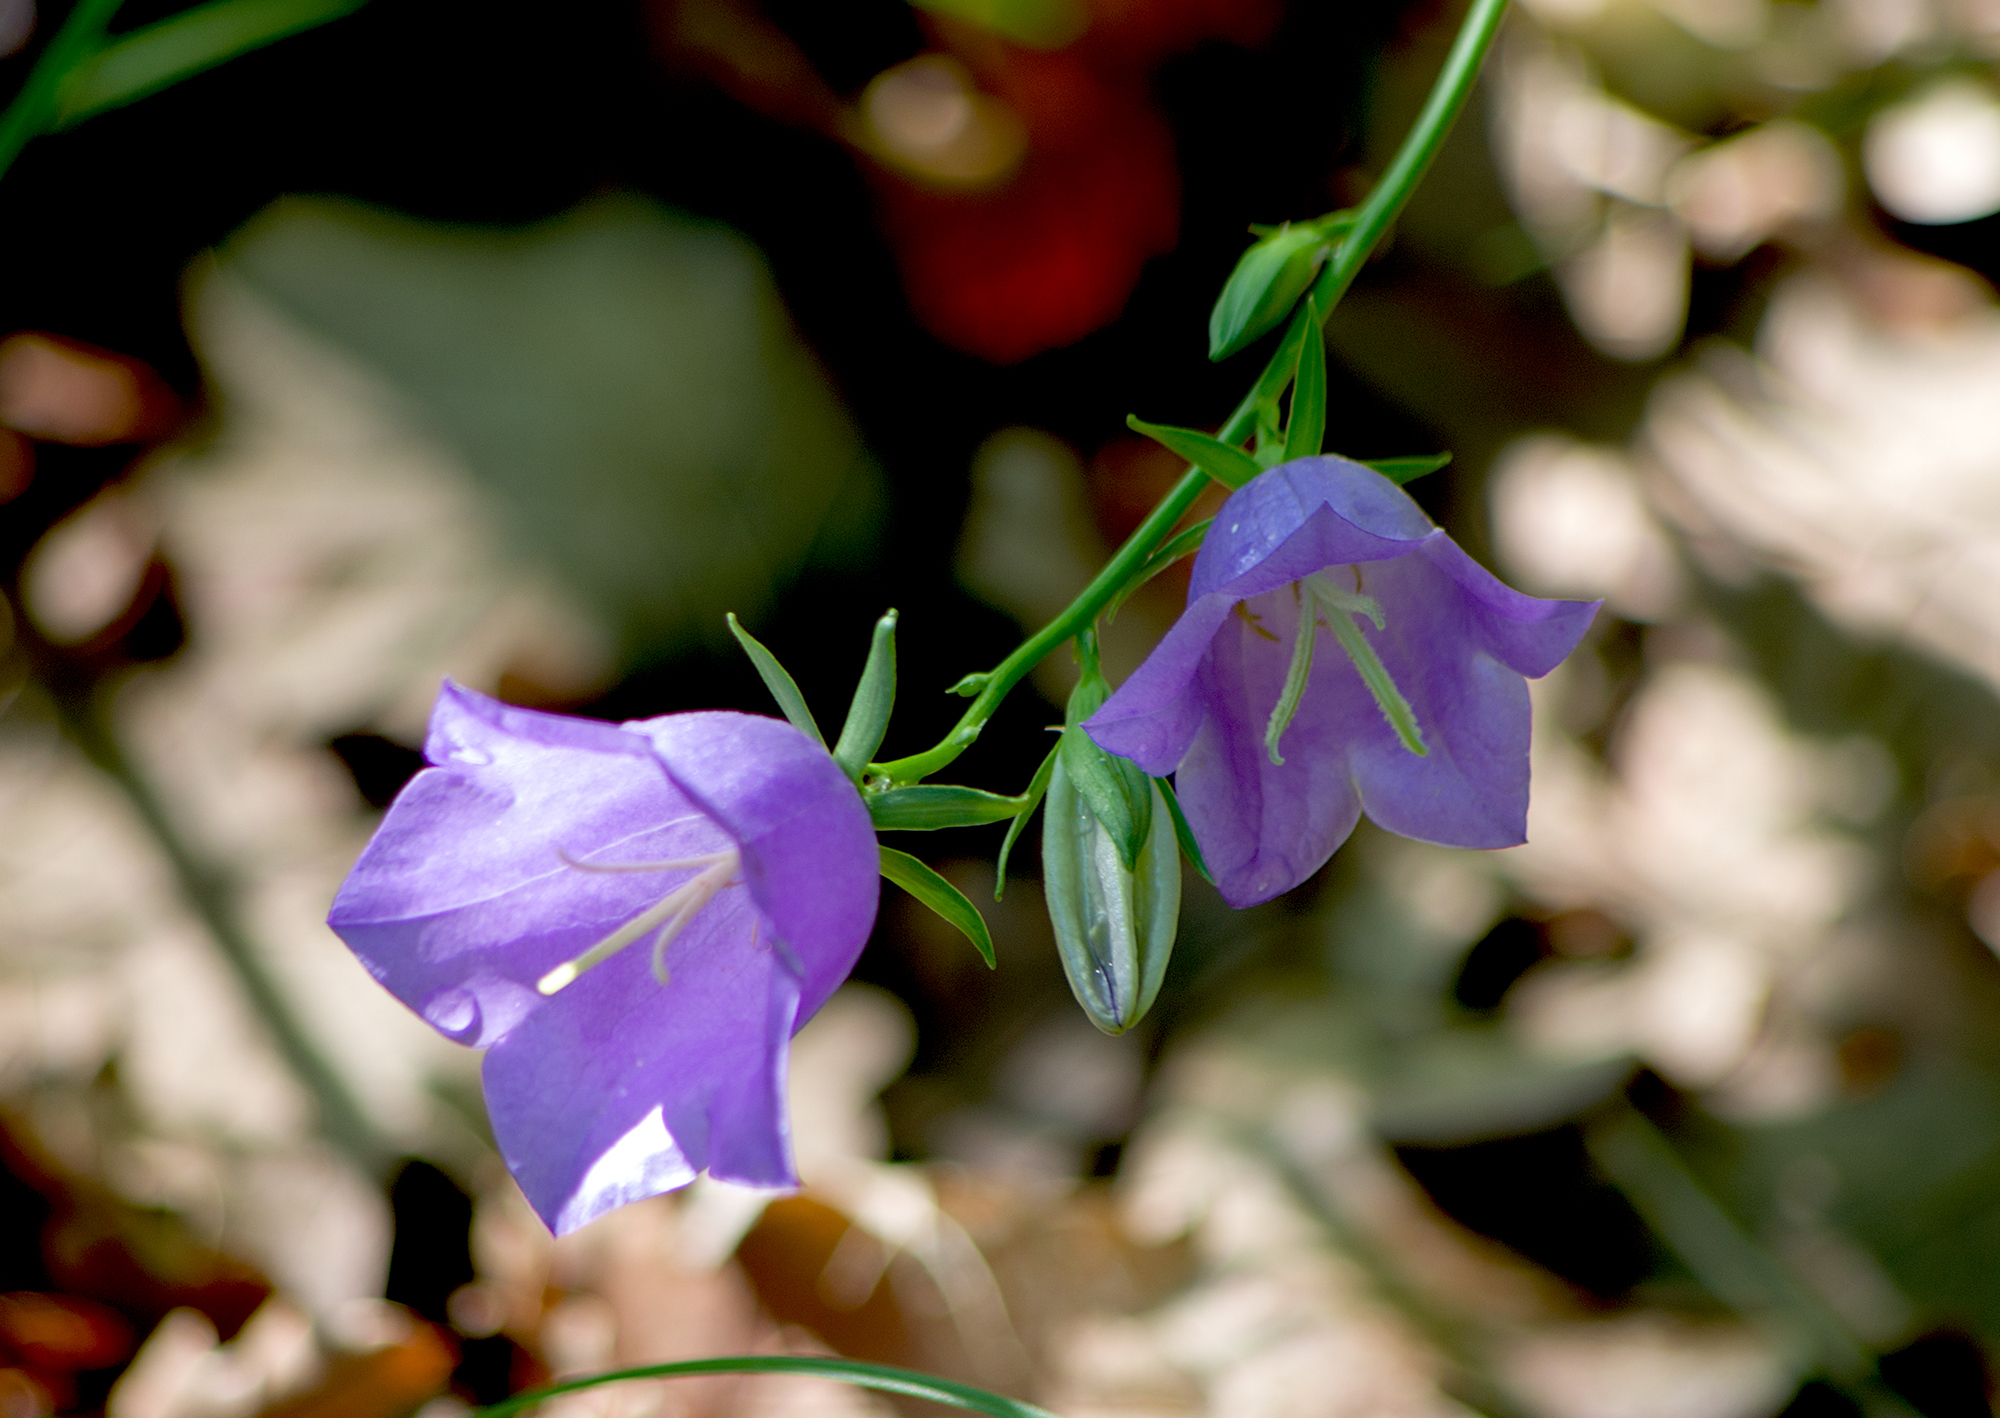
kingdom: Plantae
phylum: Tracheophyta
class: Magnoliopsida
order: Asterales
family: Campanulaceae
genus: Campanula
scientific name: Campanula persicifolia
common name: Peach-leaved bellflower
